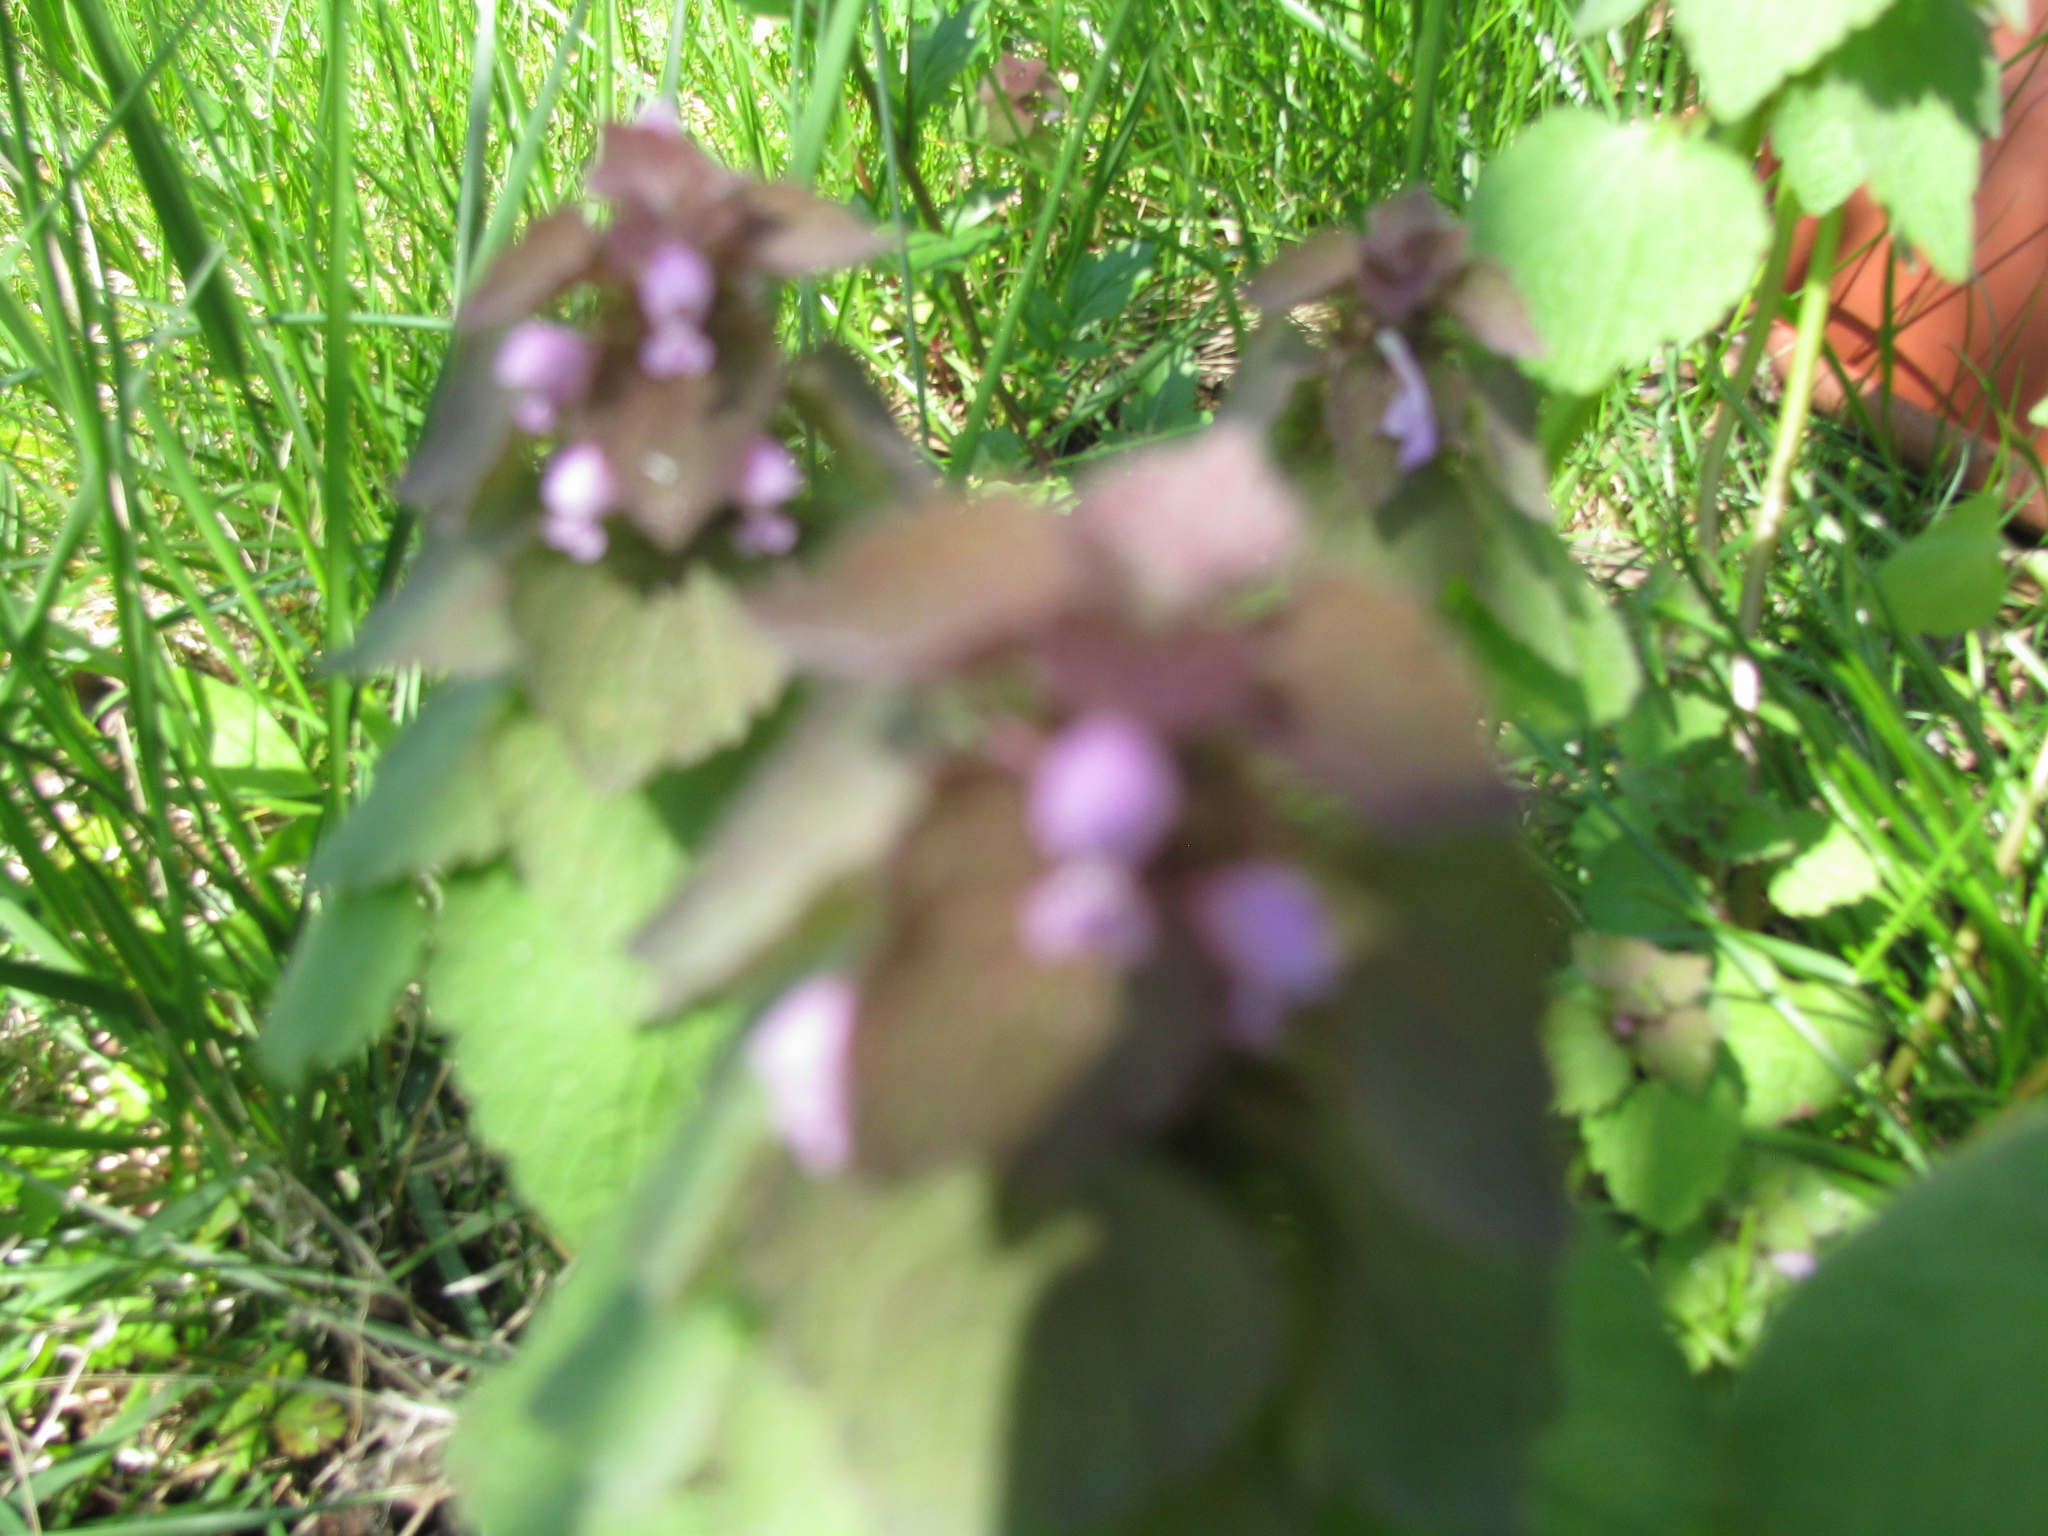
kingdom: Plantae
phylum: Tracheophyta
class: Magnoliopsida
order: Lamiales
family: Lamiaceae
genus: Lamium
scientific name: Lamium purpureum
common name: Red dead-nettle
